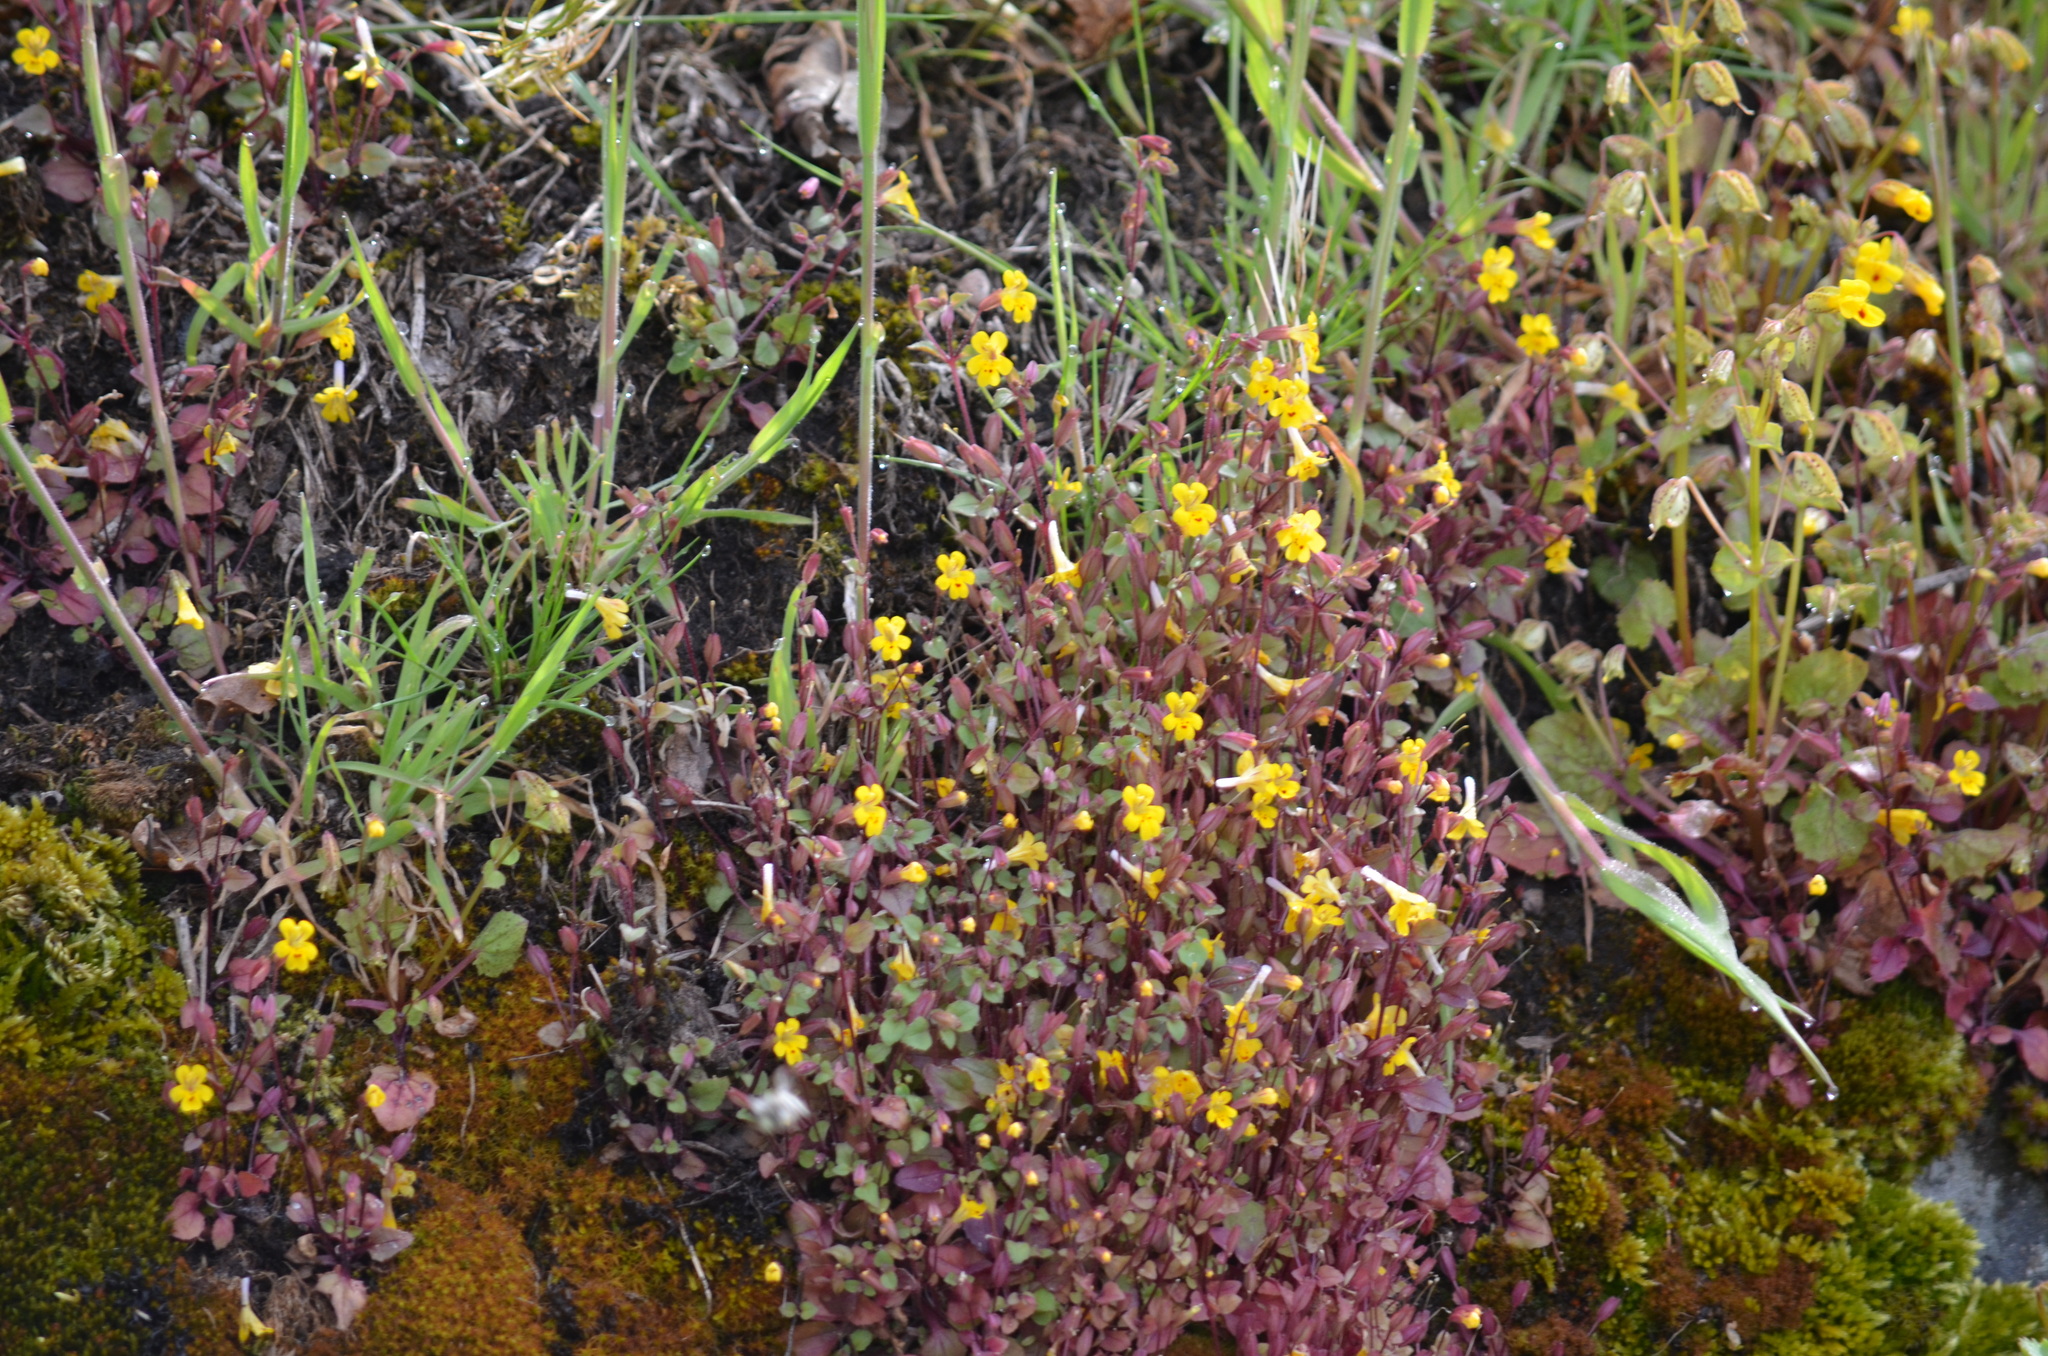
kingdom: Plantae
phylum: Tracheophyta
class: Magnoliopsida
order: Lamiales
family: Phrymaceae
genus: Erythranthe
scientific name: Erythranthe alsinoides
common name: Chickweed monkeyflower
